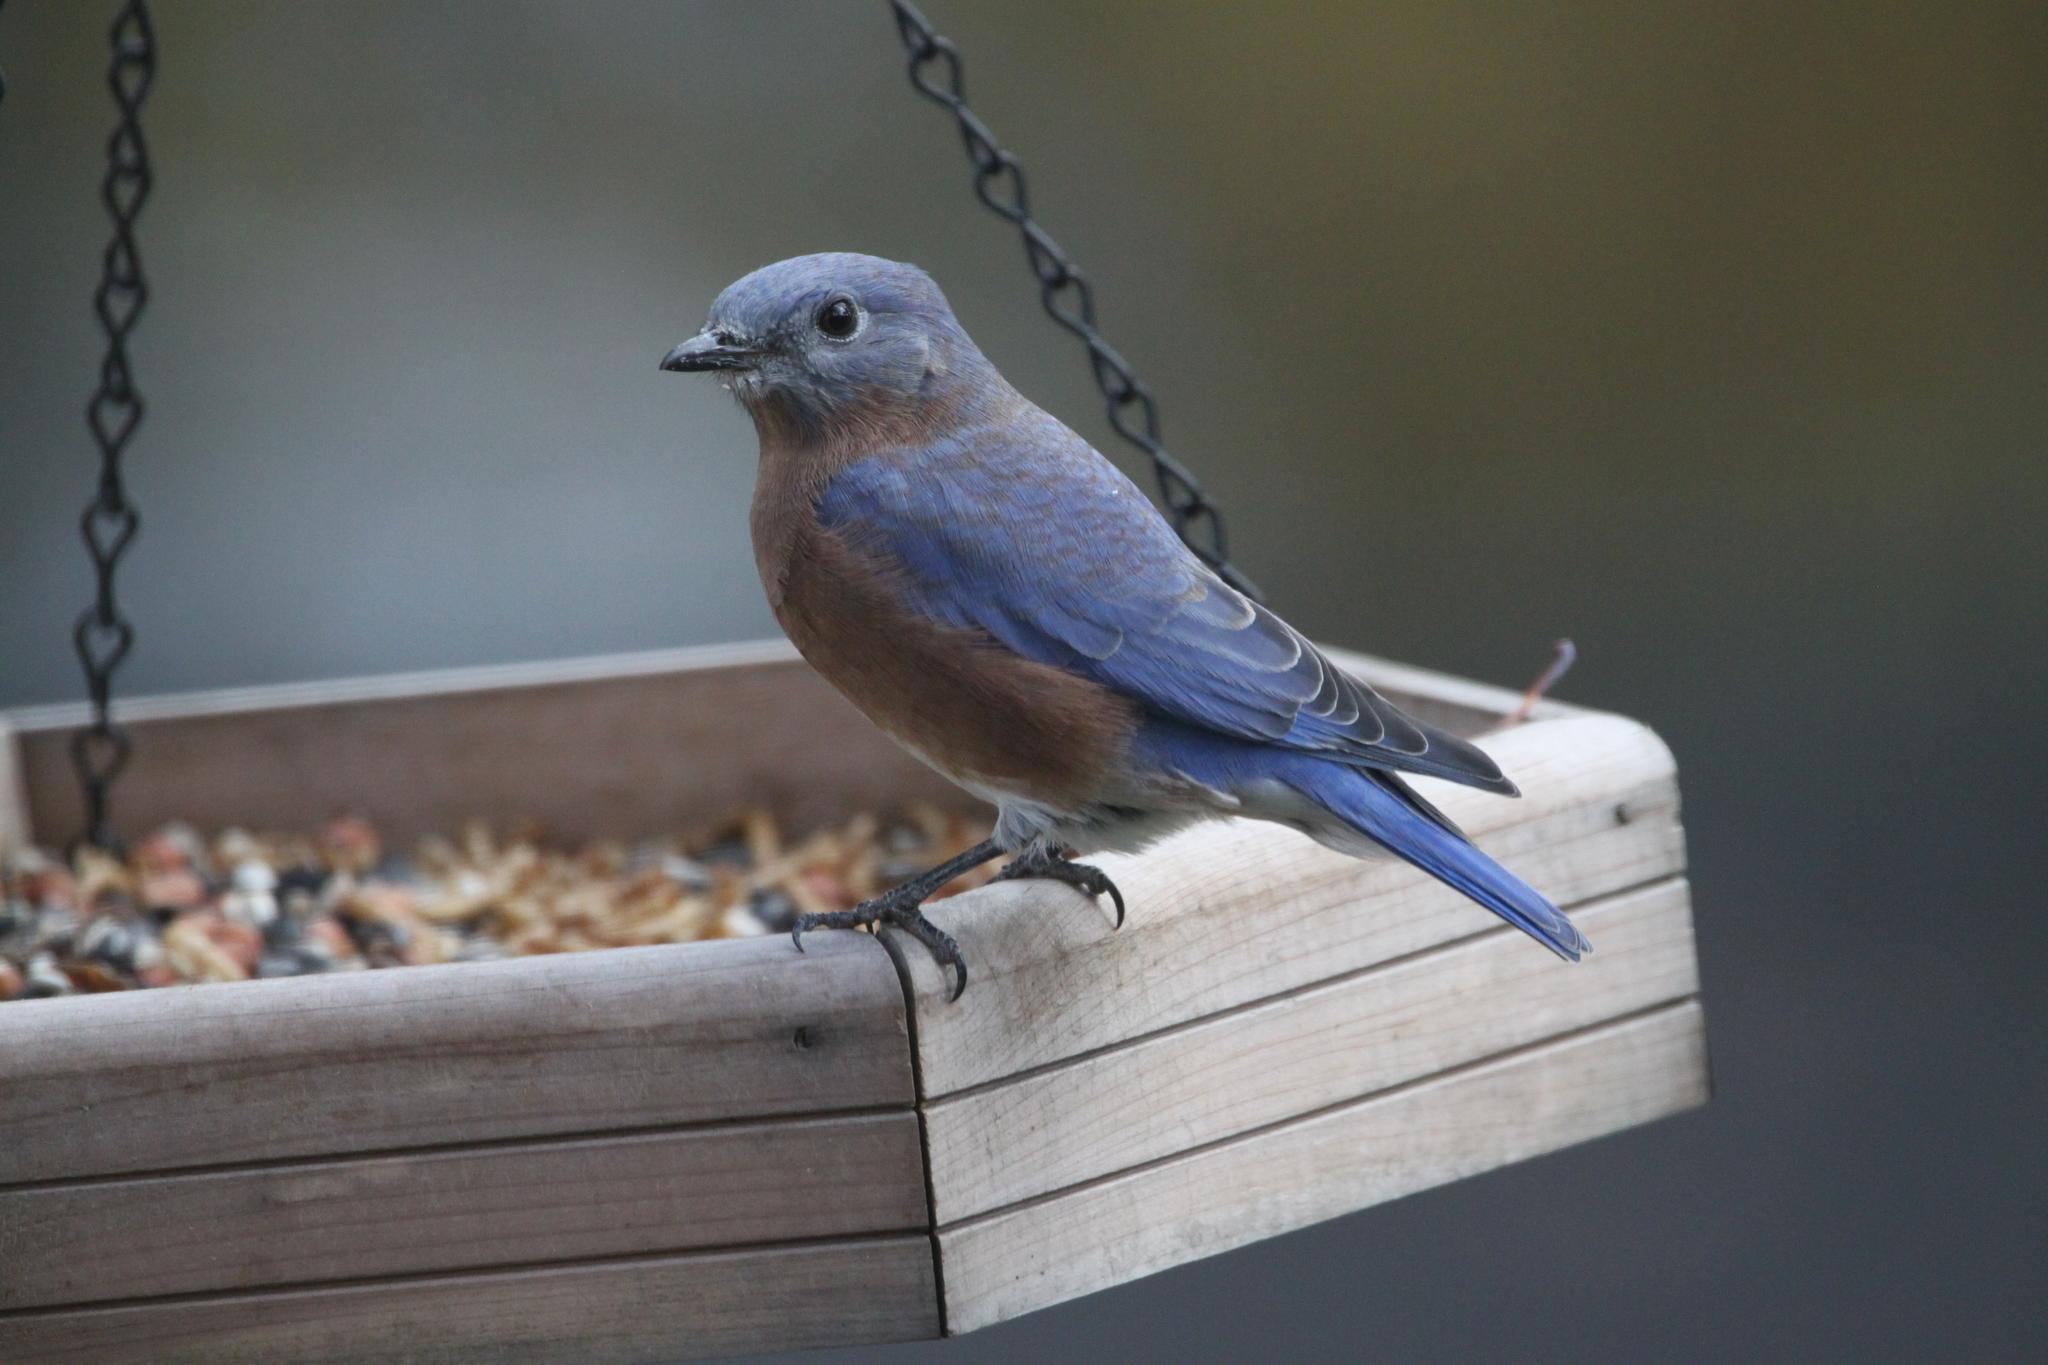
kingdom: Animalia
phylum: Chordata
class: Aves
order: Passeriformes
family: Turdidae
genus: Sialia
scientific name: Sialia sialis
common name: Eastern bluebird
